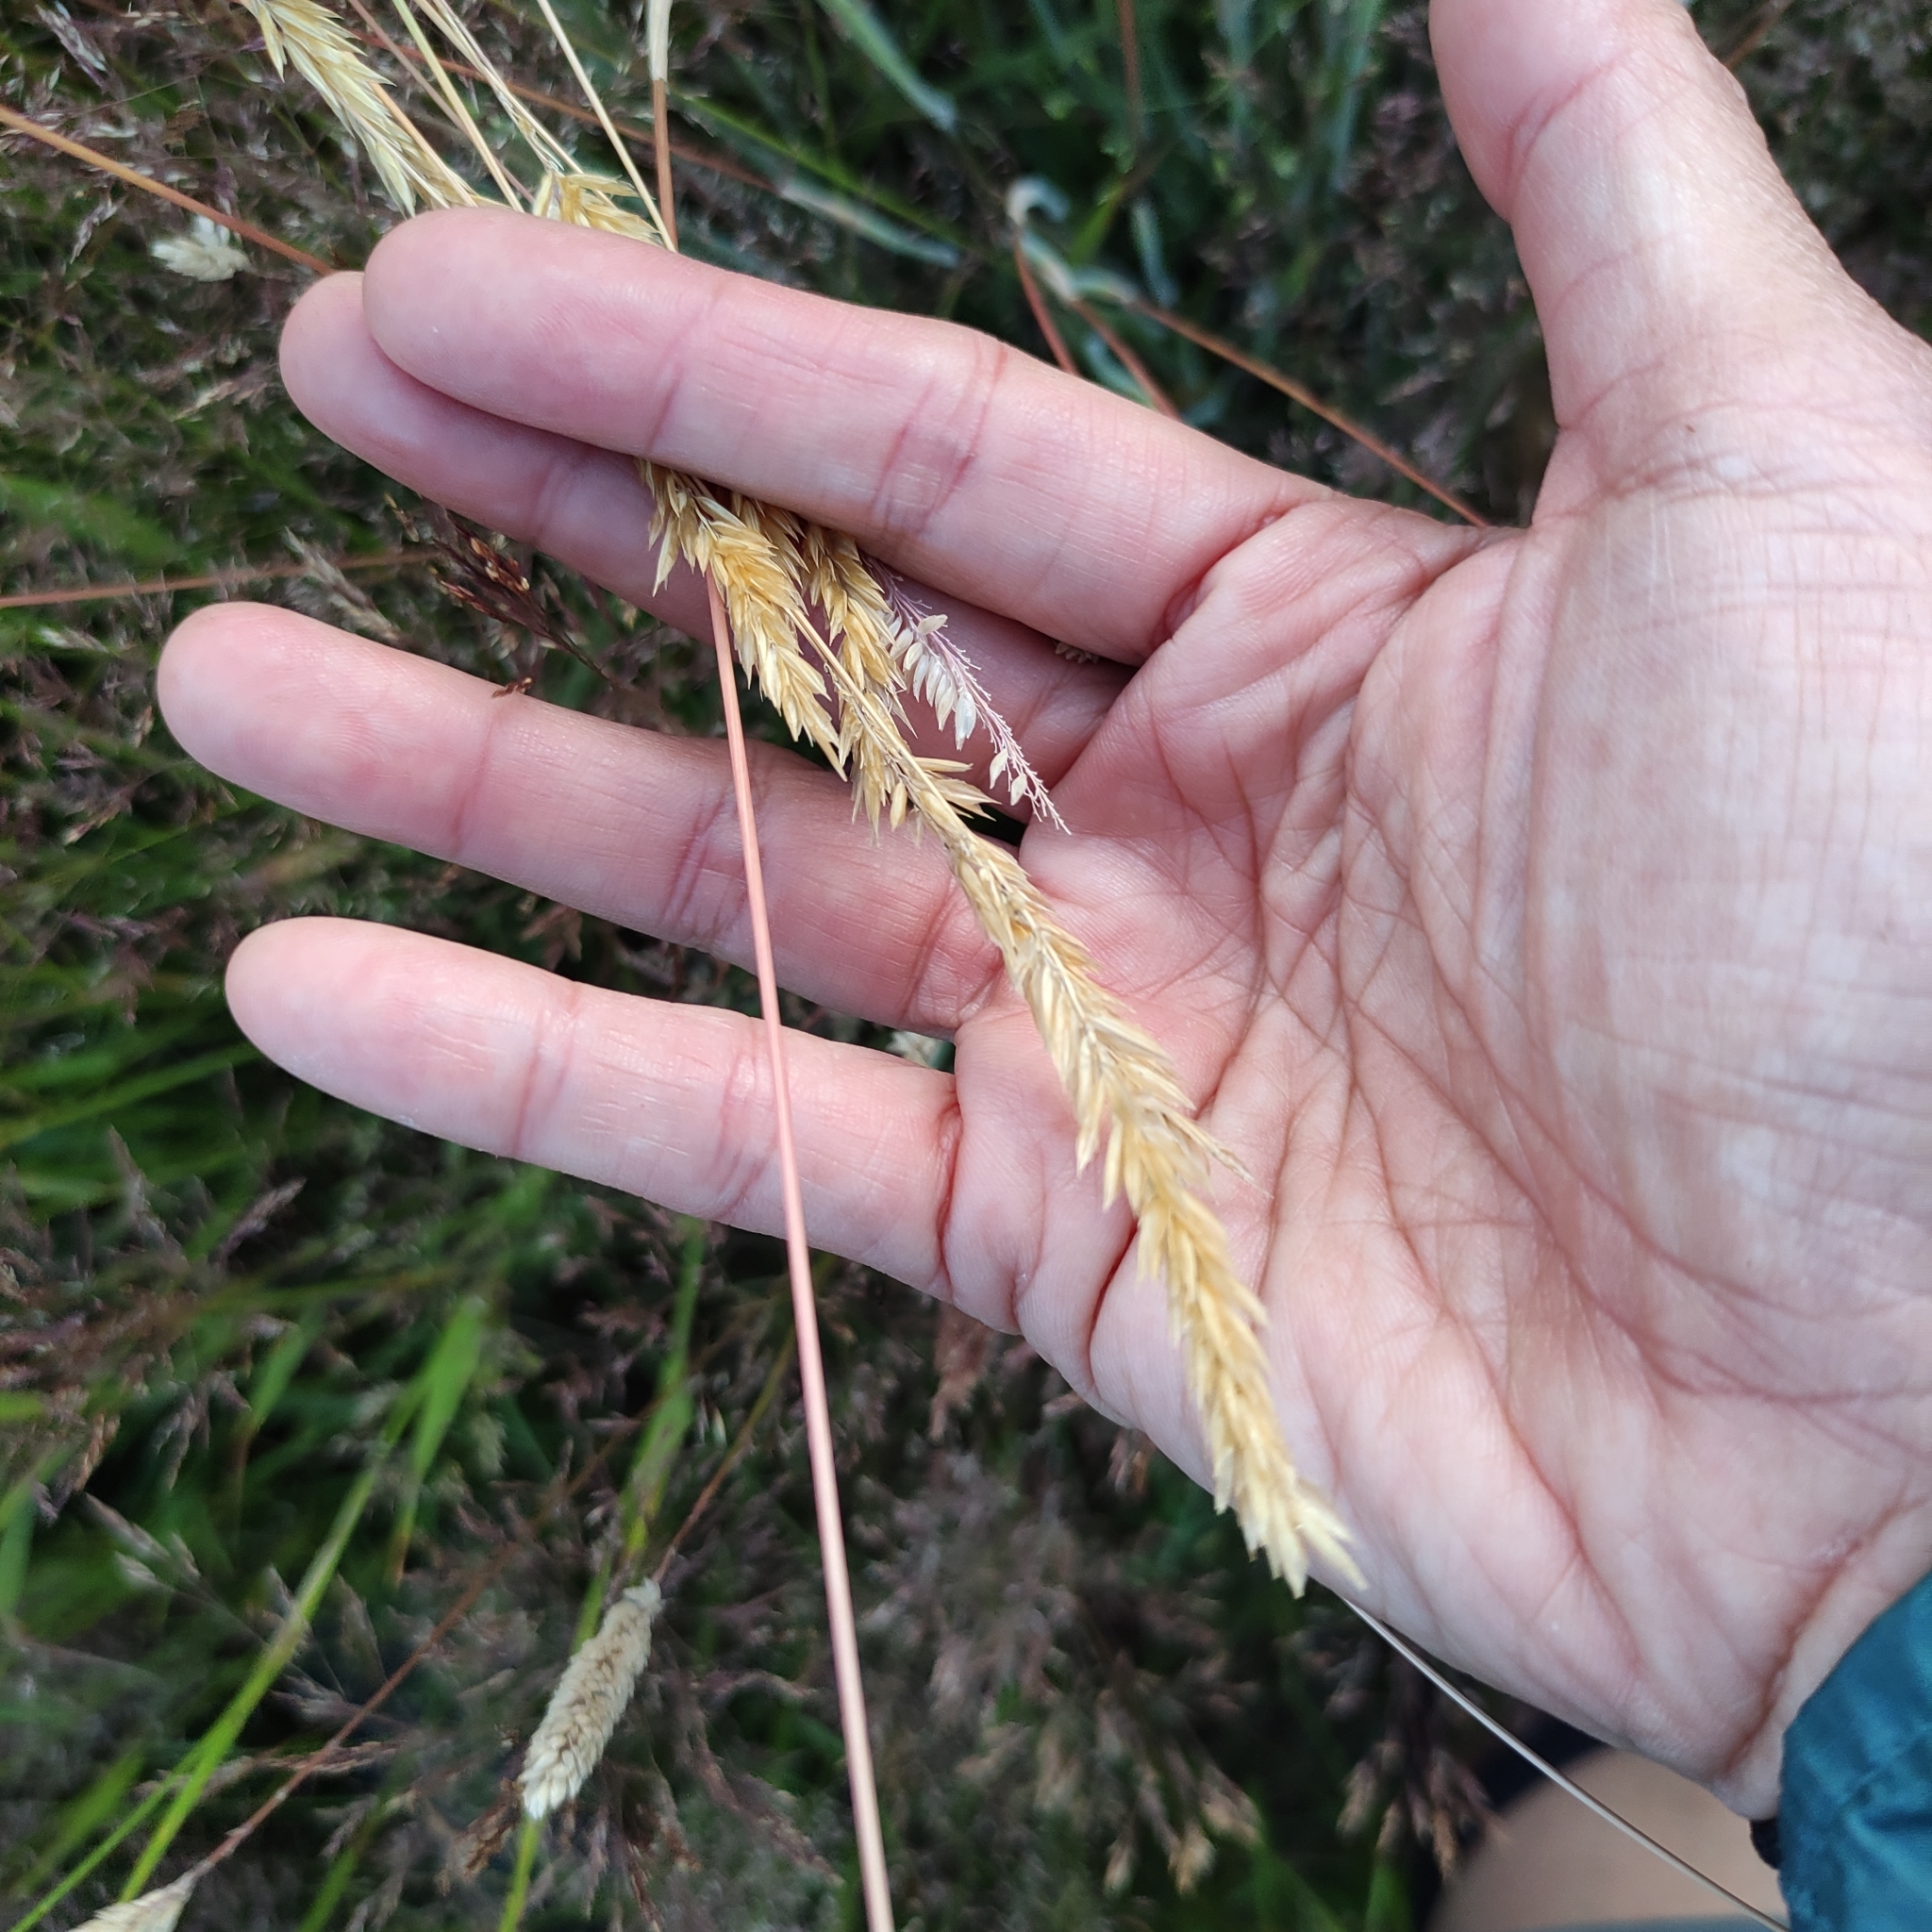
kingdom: Plantae
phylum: Tracheophyta
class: Liliopsida
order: Poales
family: Poaceae
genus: Holcus
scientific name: Holcus lanatus
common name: Yorkshire-fog
